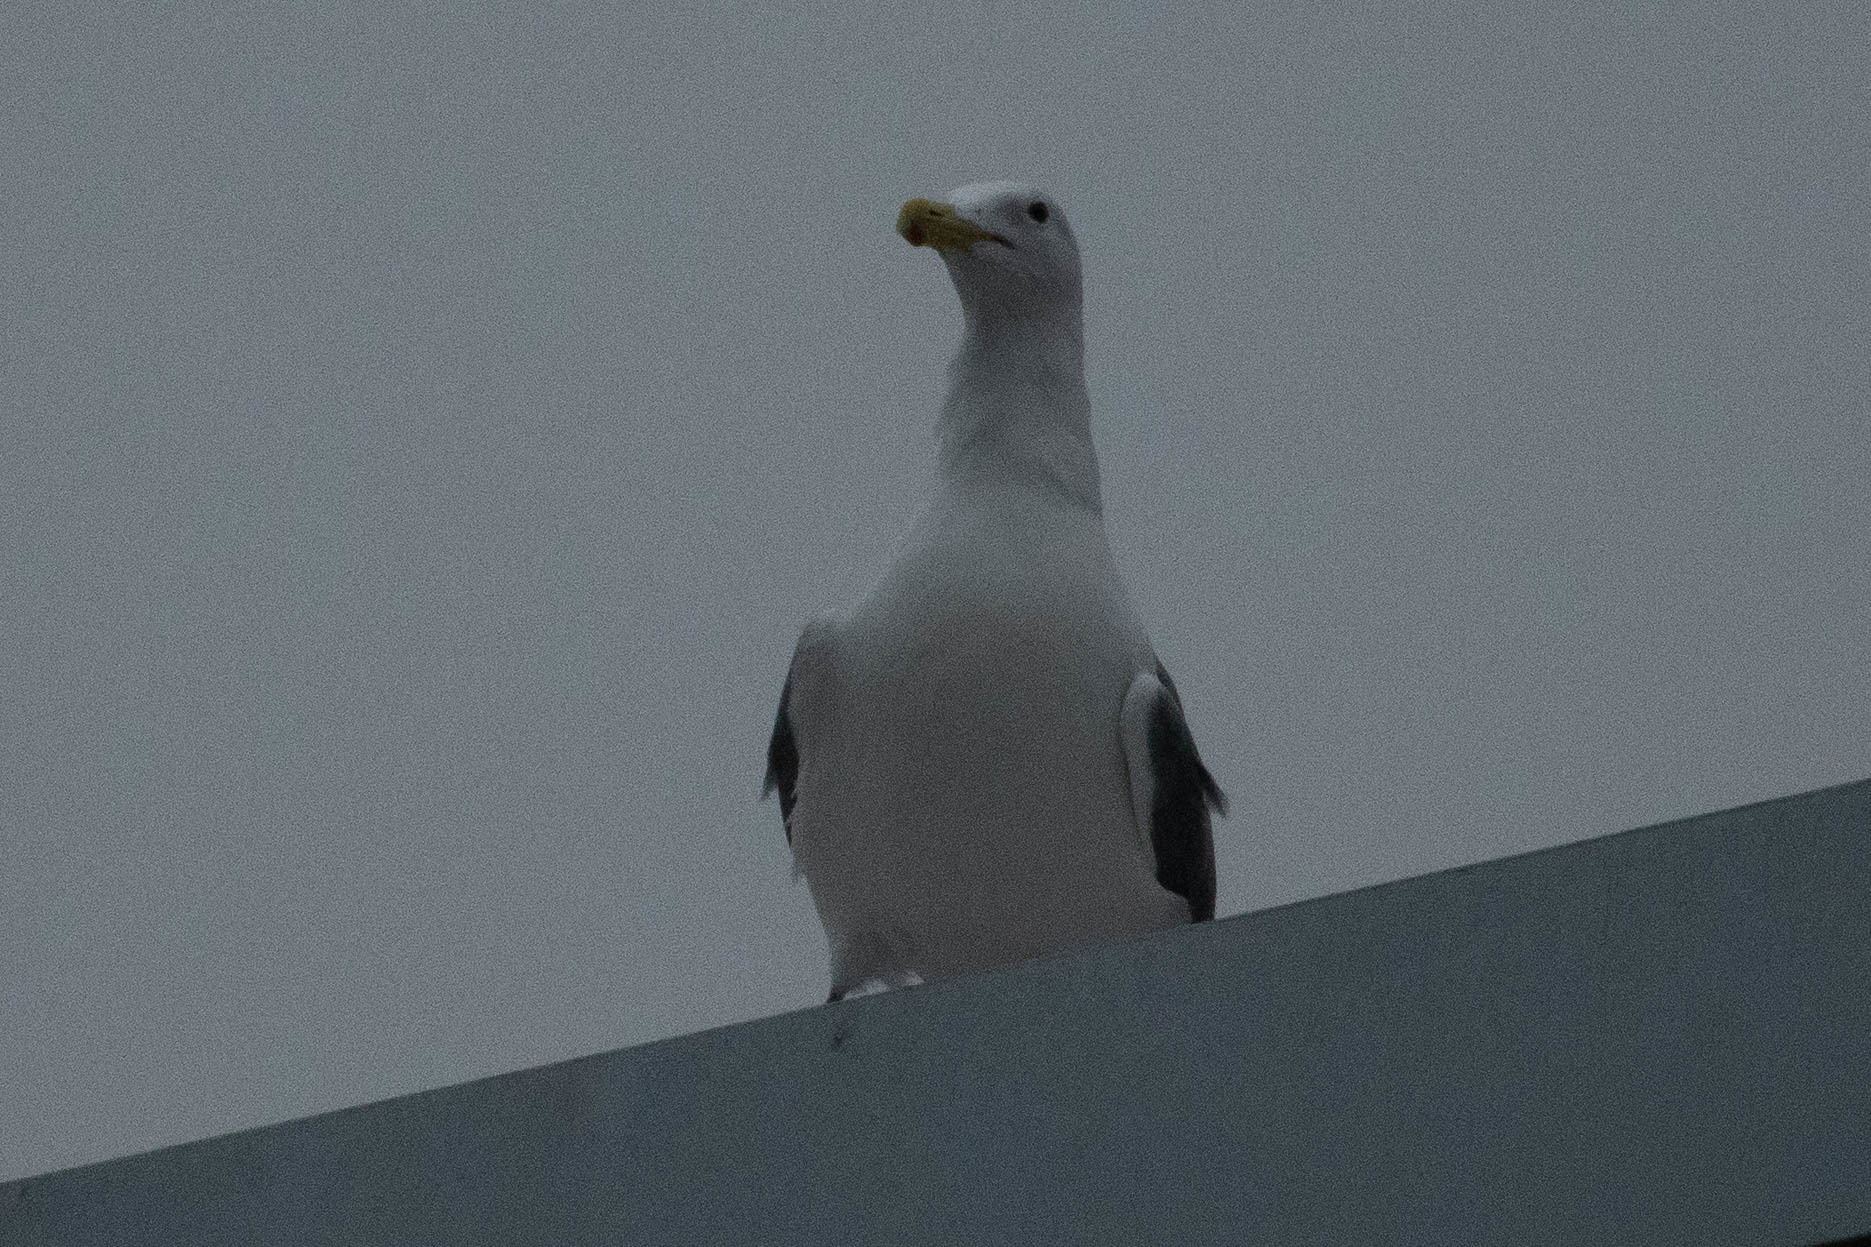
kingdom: Animalia
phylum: Chordata
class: Aves
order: Charadriiformes
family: Laridae
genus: Larus
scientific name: Larus occidentalis
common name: Western gull
